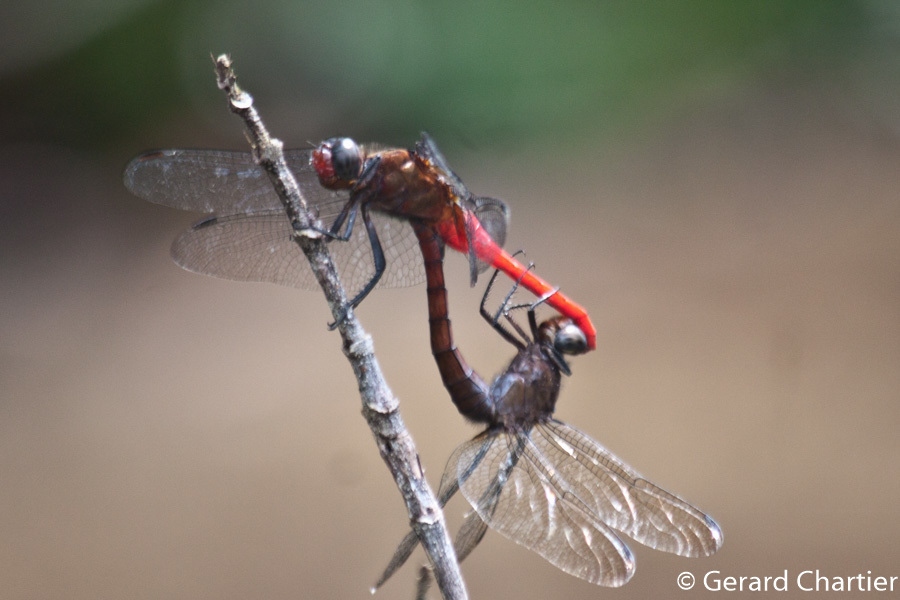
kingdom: Animalia
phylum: Arthropoda
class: Insecta
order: Odonata
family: Libellulidae
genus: Orthetrum
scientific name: Orthetrum chrysis
